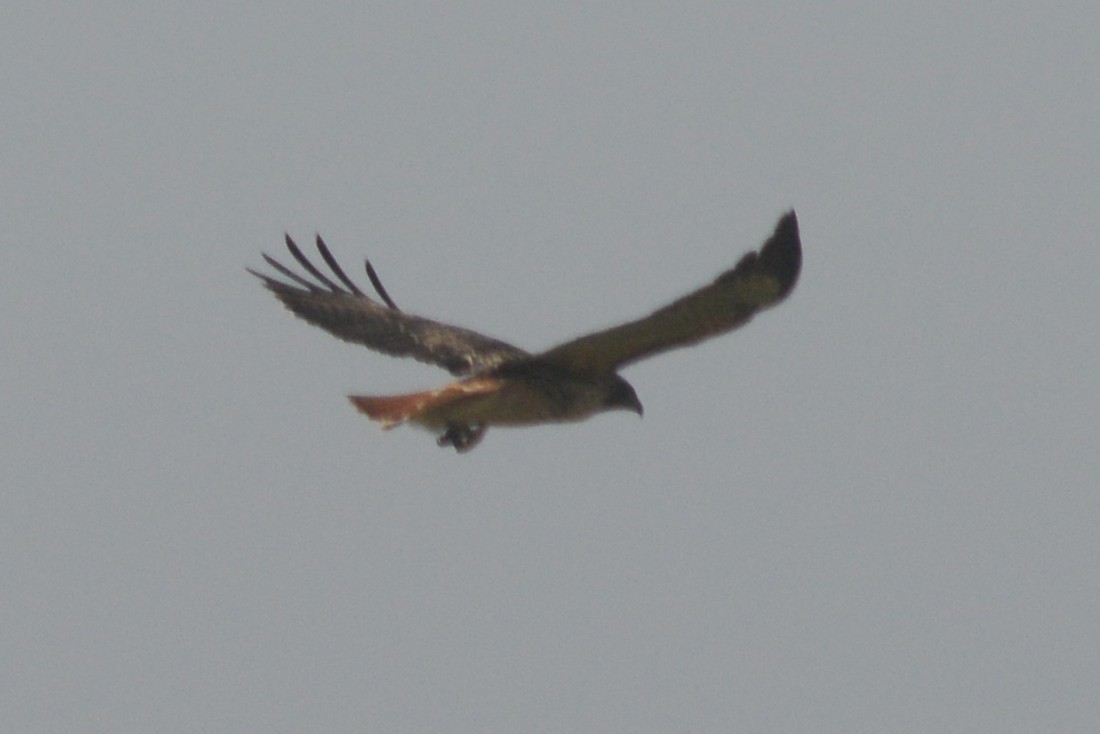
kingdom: Animalia
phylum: Chordata
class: Aves
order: Accipitriformes
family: Accipitridae
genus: Buteo
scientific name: Buteo jamaicensis
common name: Red-tailed hawk
